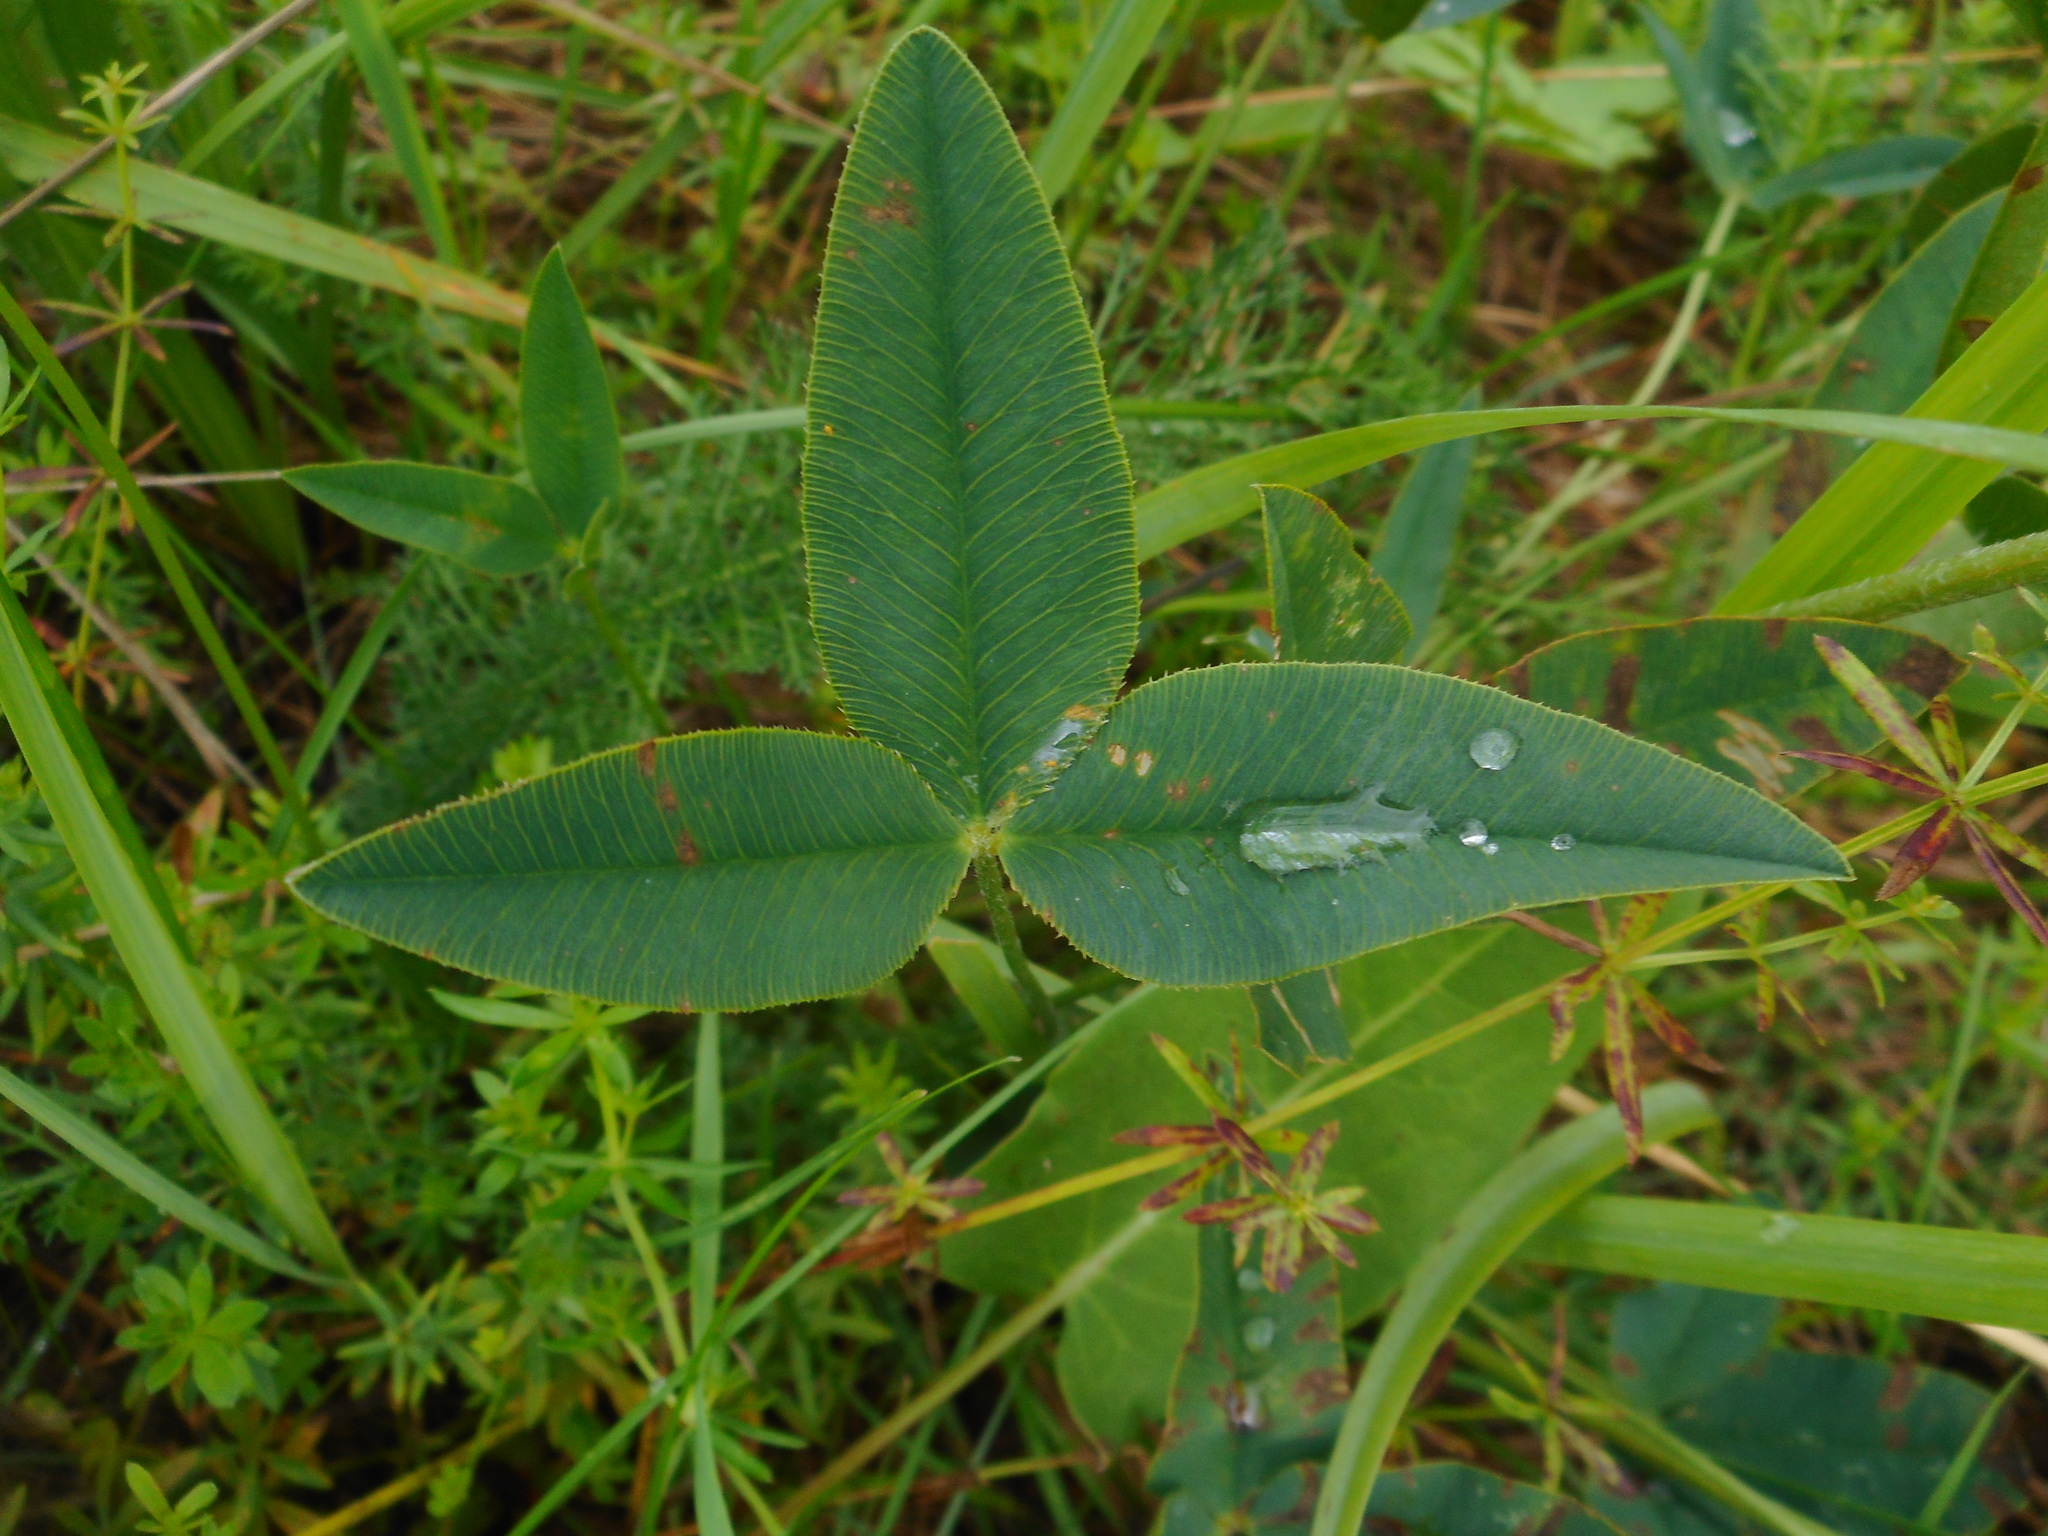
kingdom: Plantae
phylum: Tracheophyta
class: Magnoliopsida
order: Fabales
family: Fabaceae
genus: Trifolium
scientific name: Trifolium montanum
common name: Mountain clover
